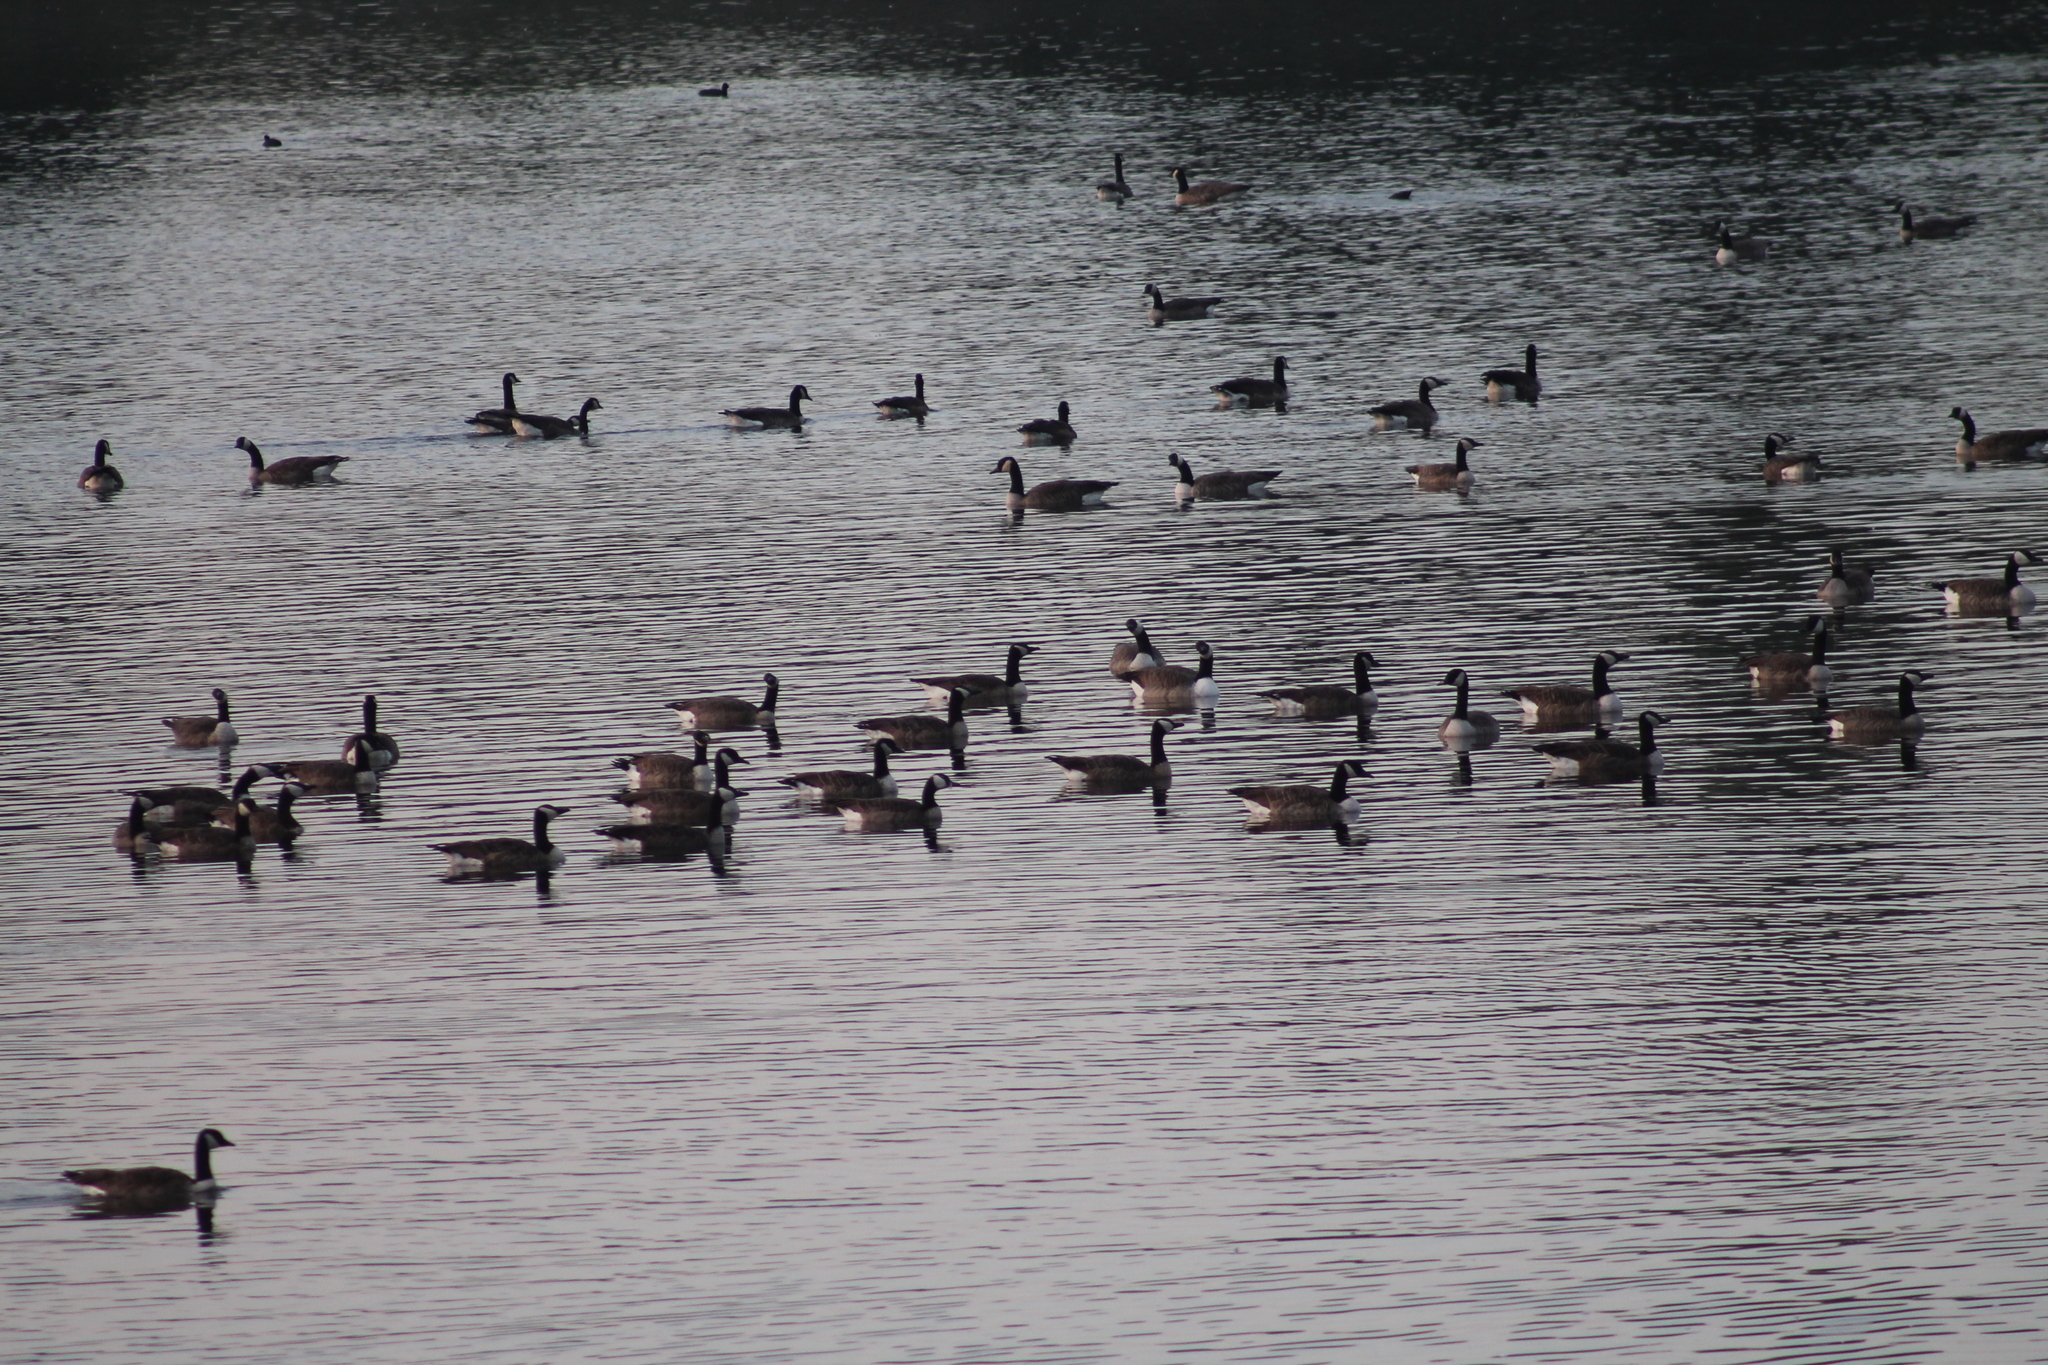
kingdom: Animalia
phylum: Chordata
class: Aves
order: Anseriformes
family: Anatidae
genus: Branta
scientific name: Branta canadensis
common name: Canada goose
